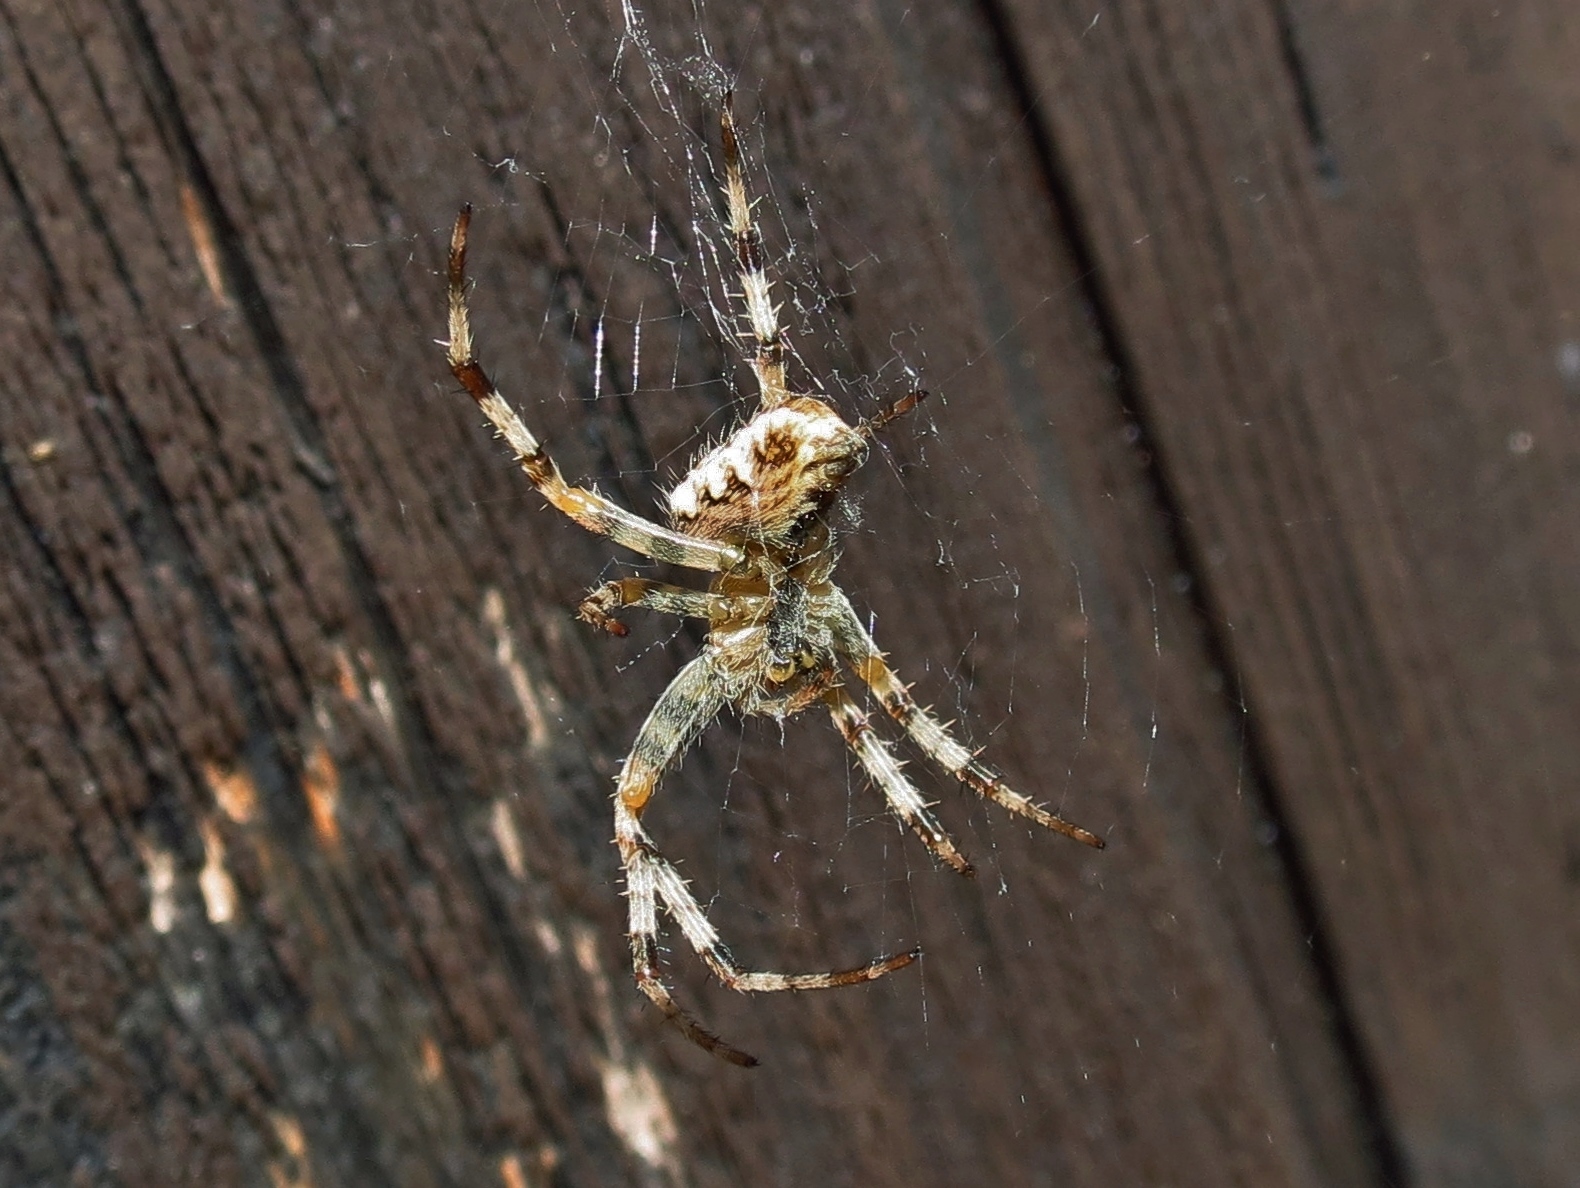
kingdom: Animalia
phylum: Arthropoda
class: Arachnida
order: Araneae
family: Araneidae
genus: Araneus
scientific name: Araneus diadematus
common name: Cross orbweaver
